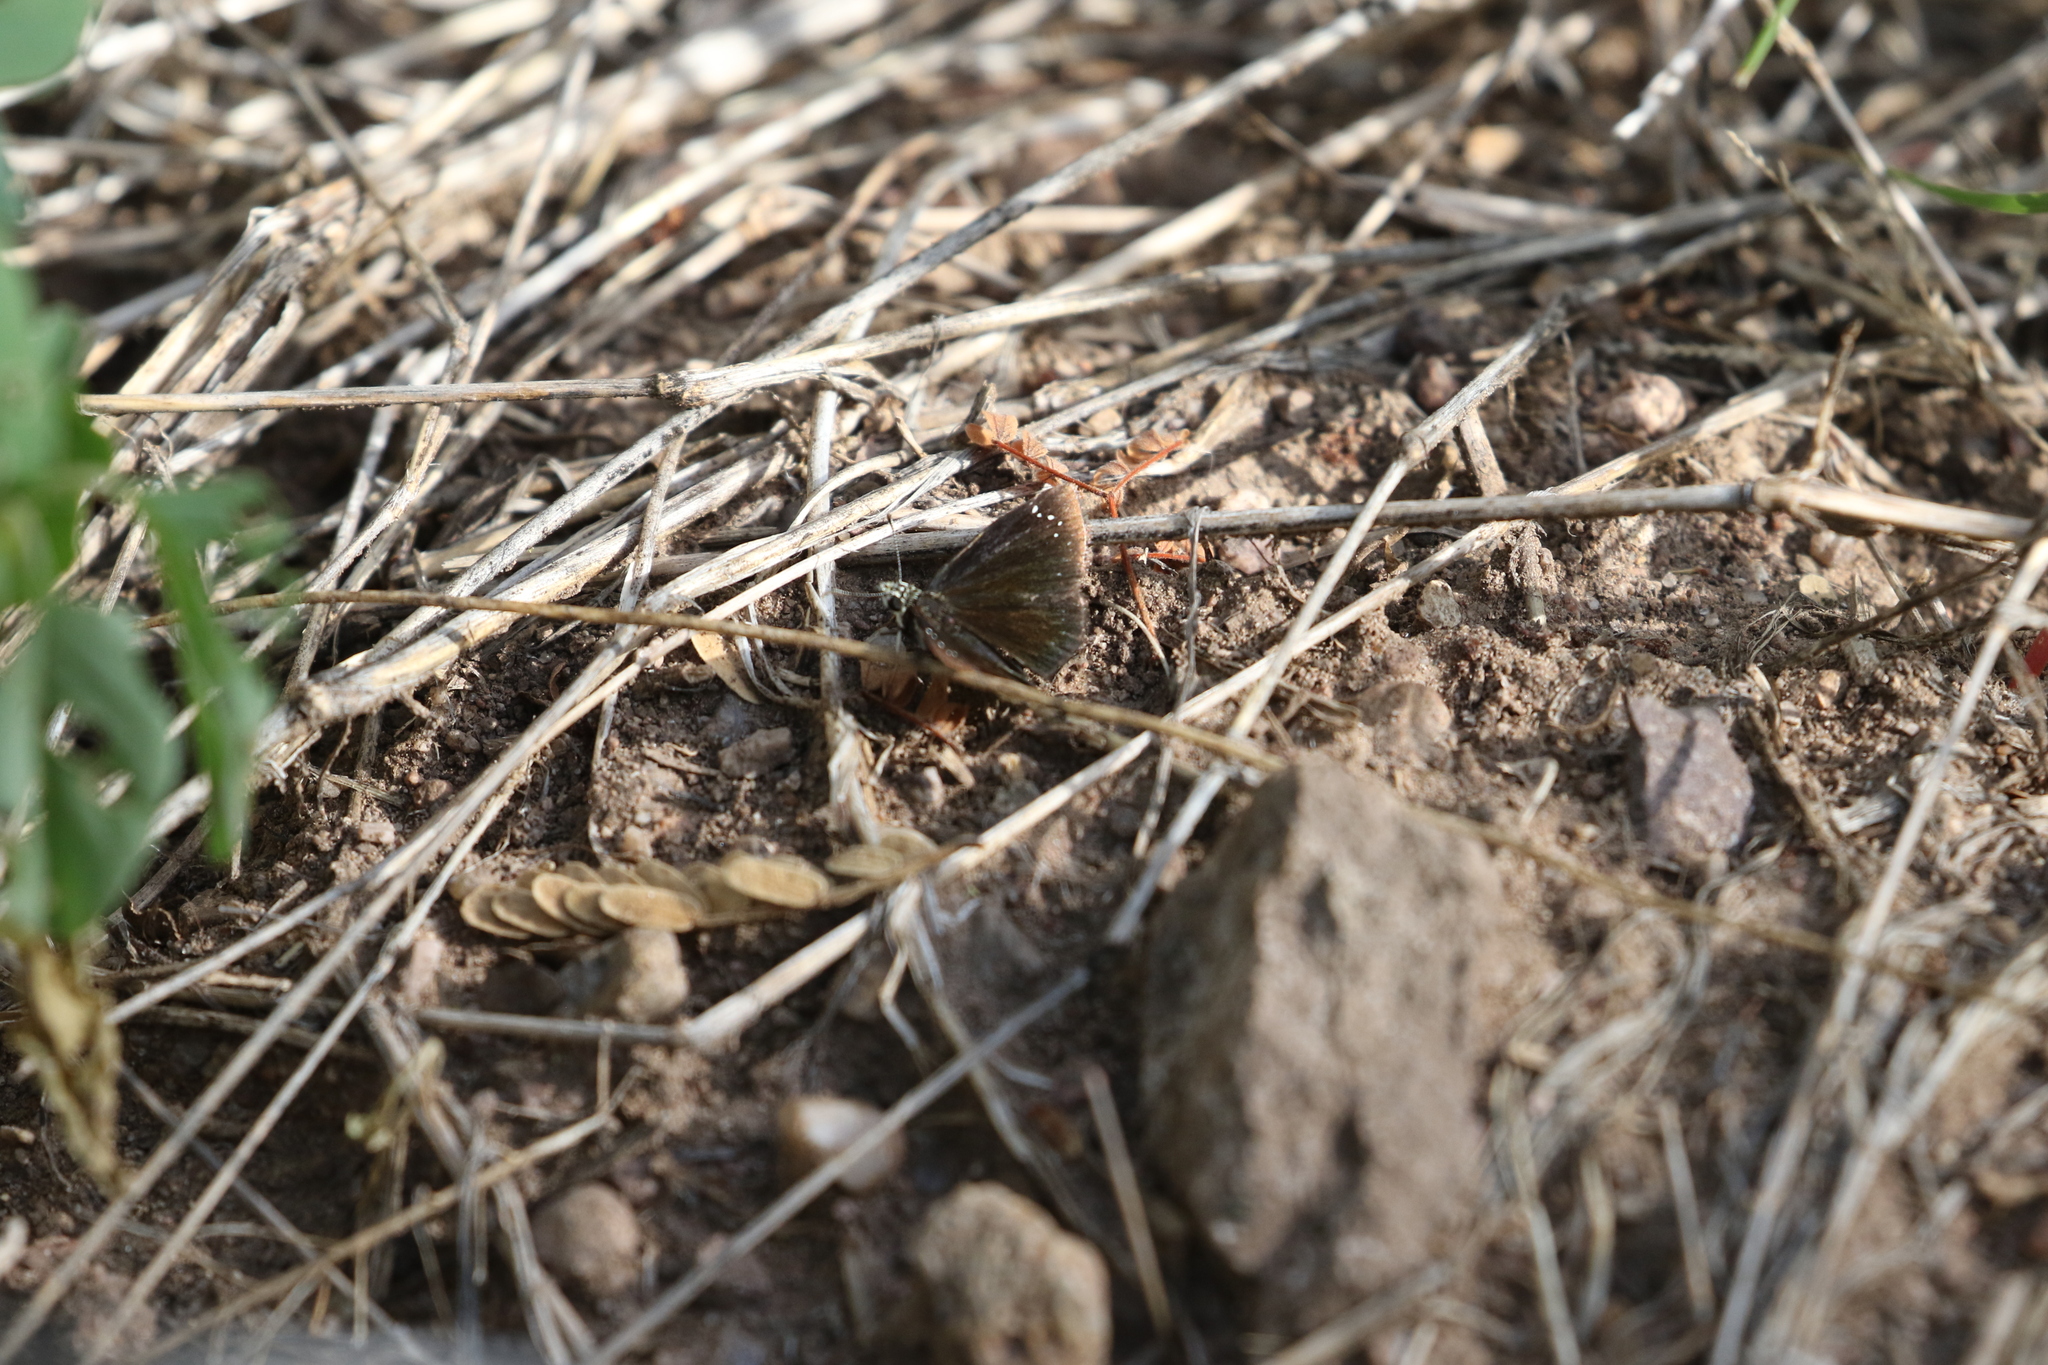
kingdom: Animalia
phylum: Arthropoda
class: Insecta
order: Lepidoptera
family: Hesperiidae
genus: Pholisora
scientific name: Pholisora catullus
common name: Common sootywing
